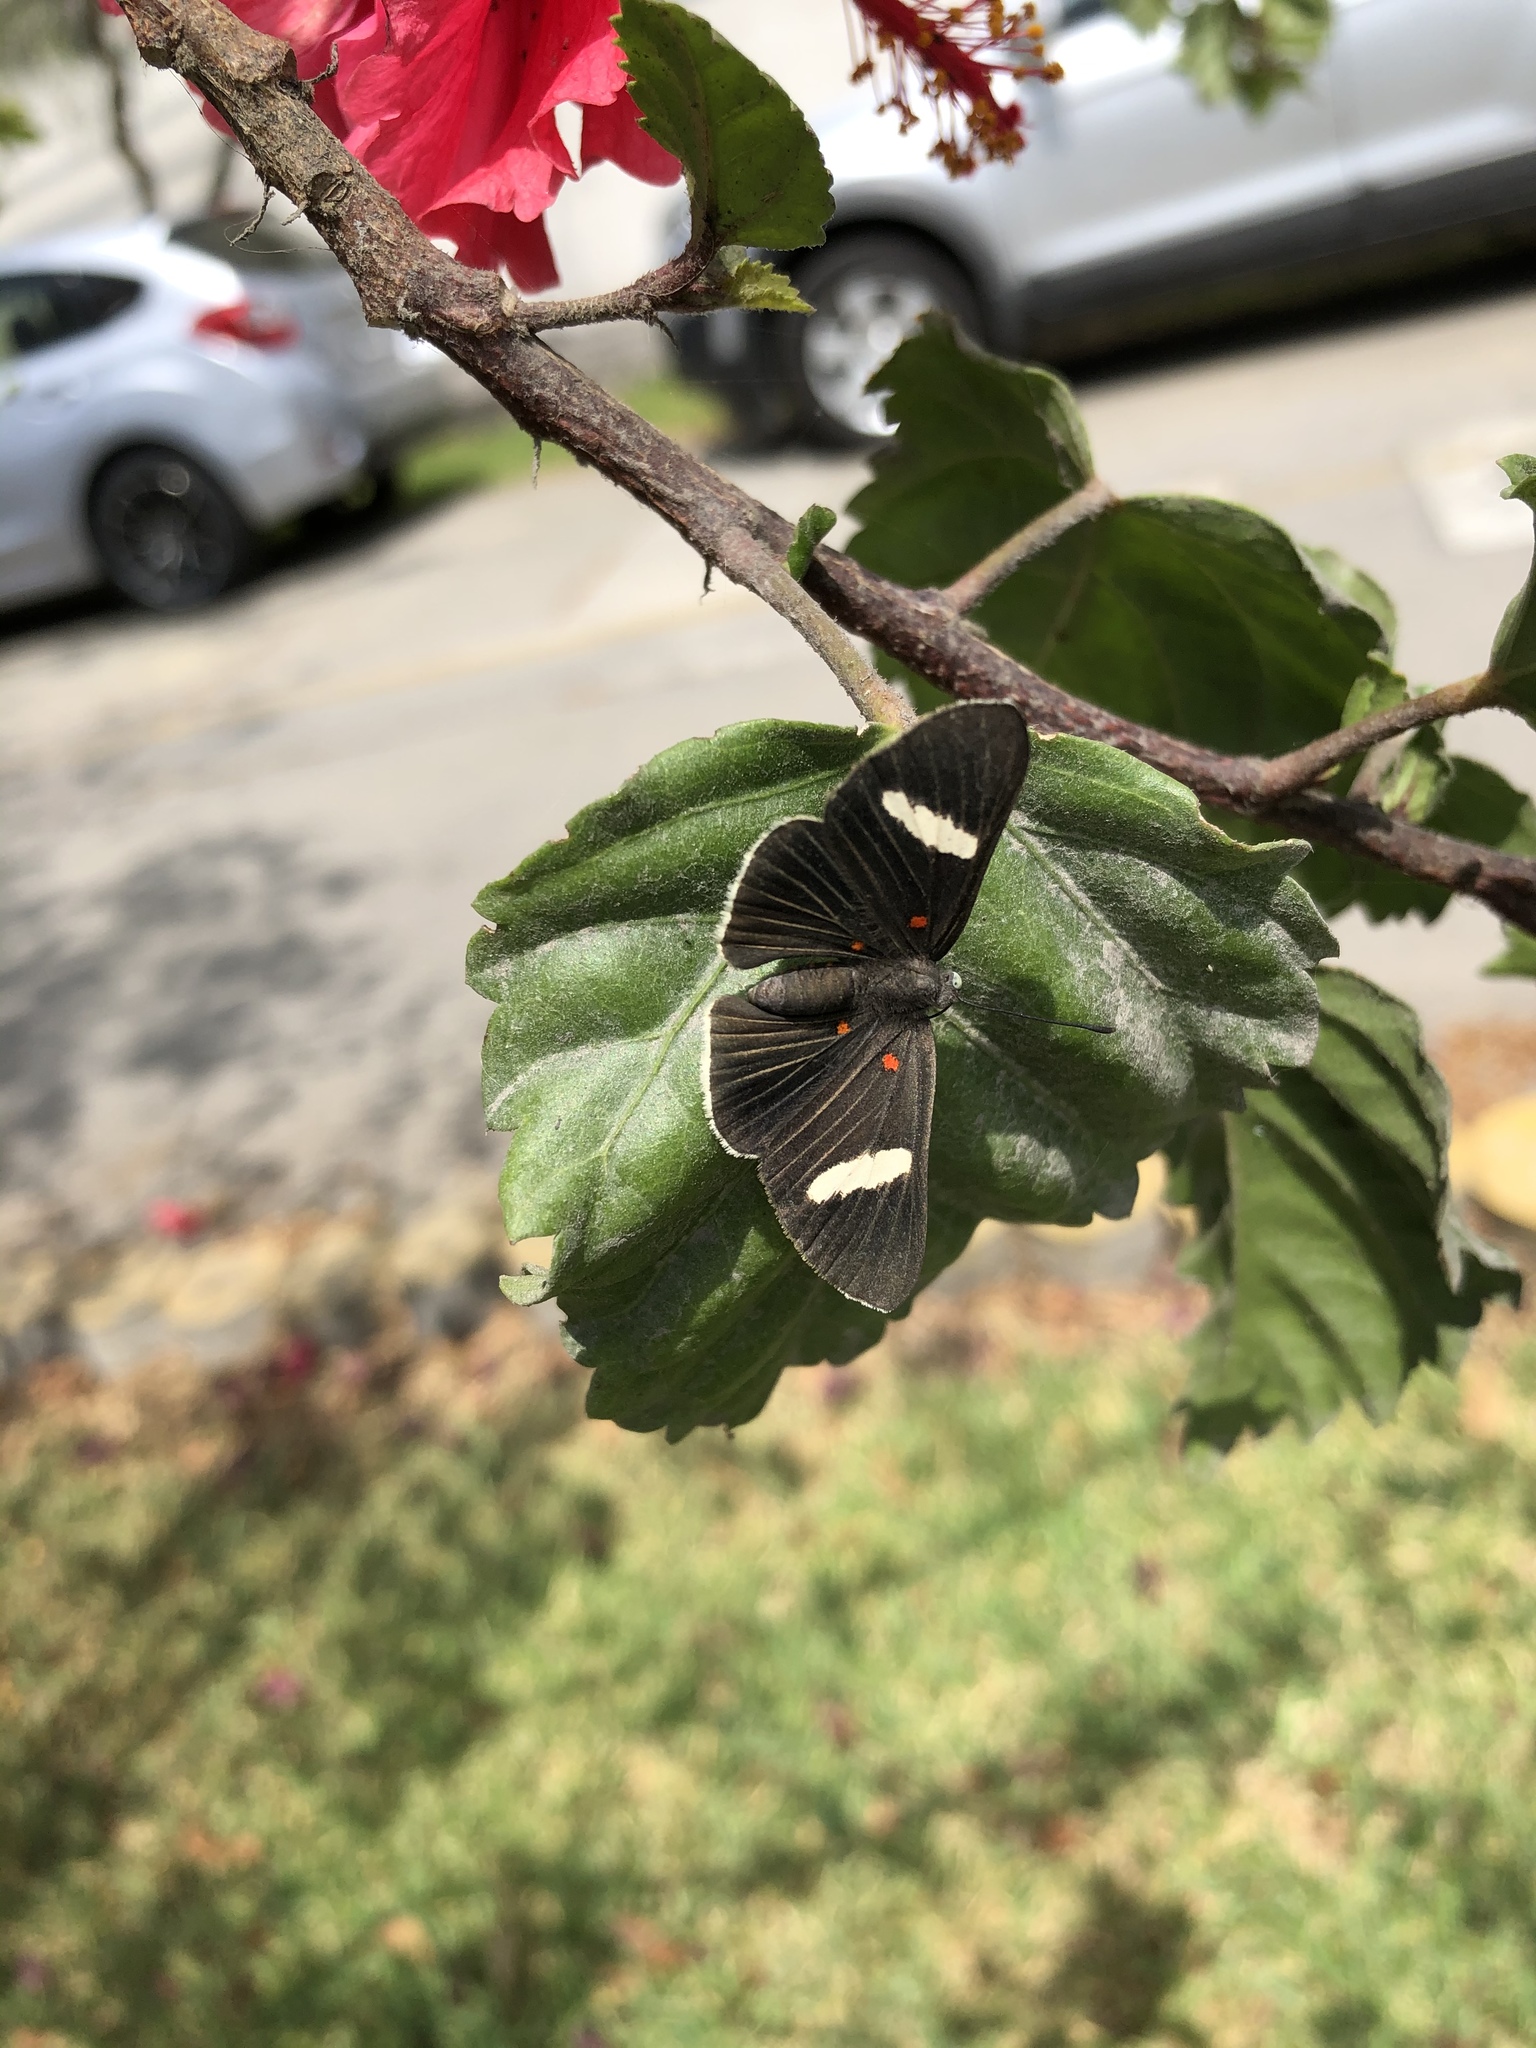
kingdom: Animalia
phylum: Arthropoda
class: Insecta
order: Lepidoptera
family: Lycaenidae
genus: Melanis
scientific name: Melanis
